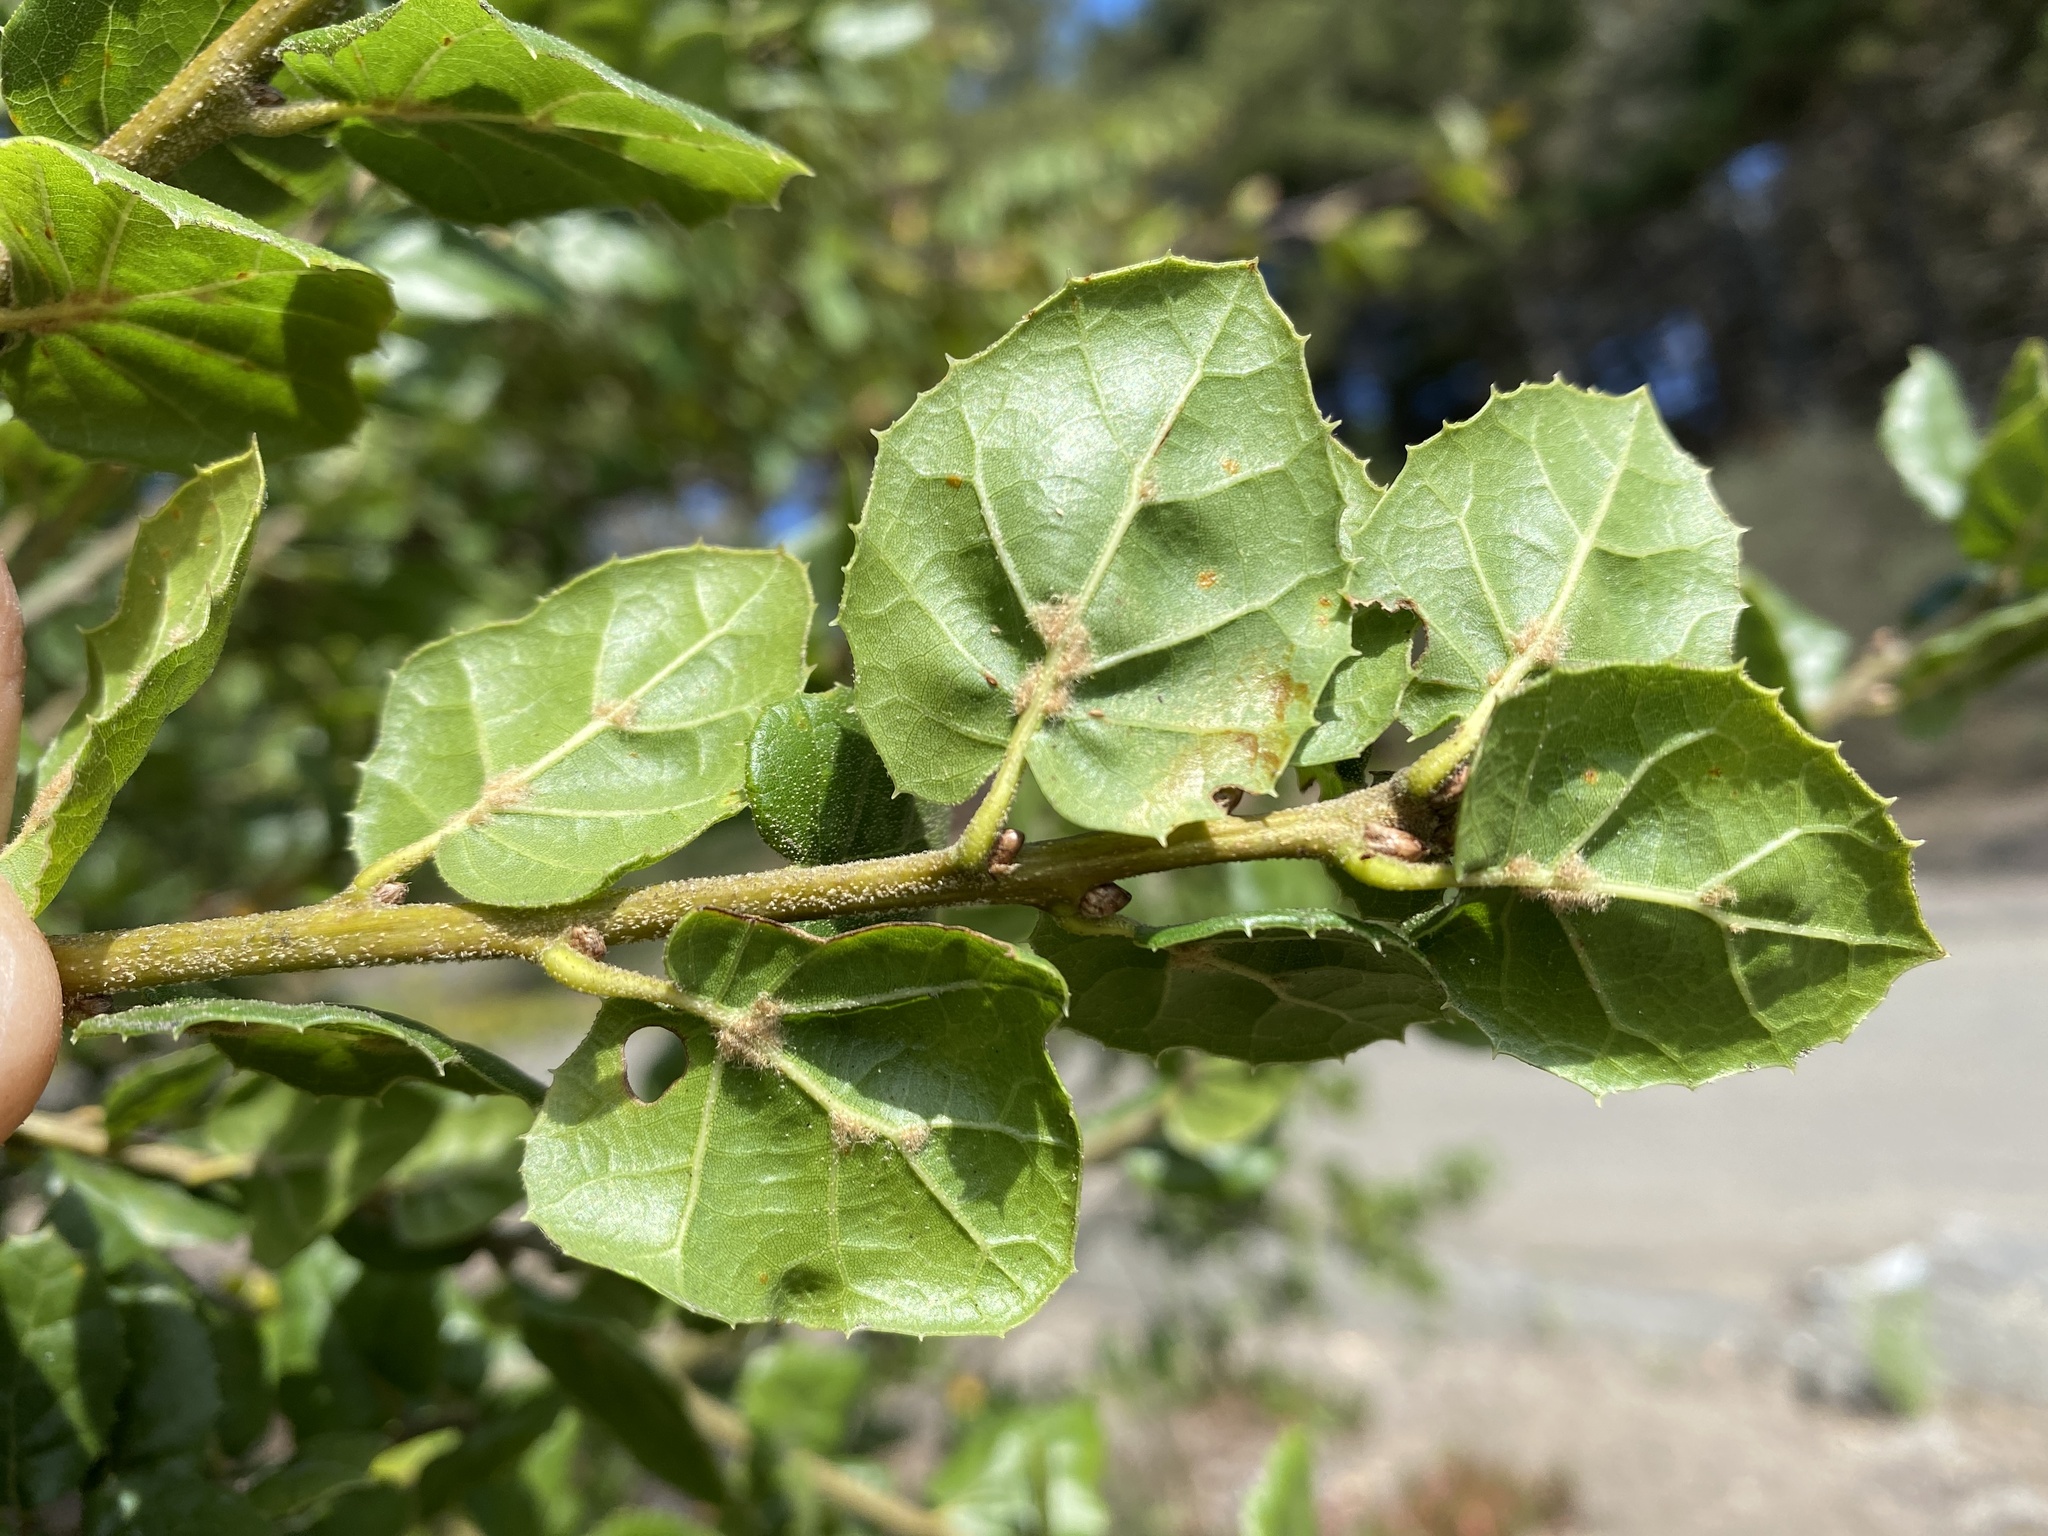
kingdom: Plantae
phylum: Tracheophyta
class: Magnoliopsida
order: Fagales
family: Fagaceae
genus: Quercus
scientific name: Quercus agrifolia
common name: California live oak
